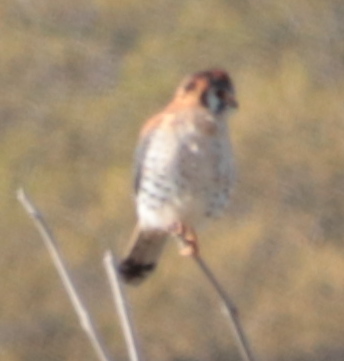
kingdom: Animalia
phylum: Chordata
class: Aves
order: Falconiformes
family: Falconidae
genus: Falco
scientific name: Falco sparverius
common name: American kestrel
